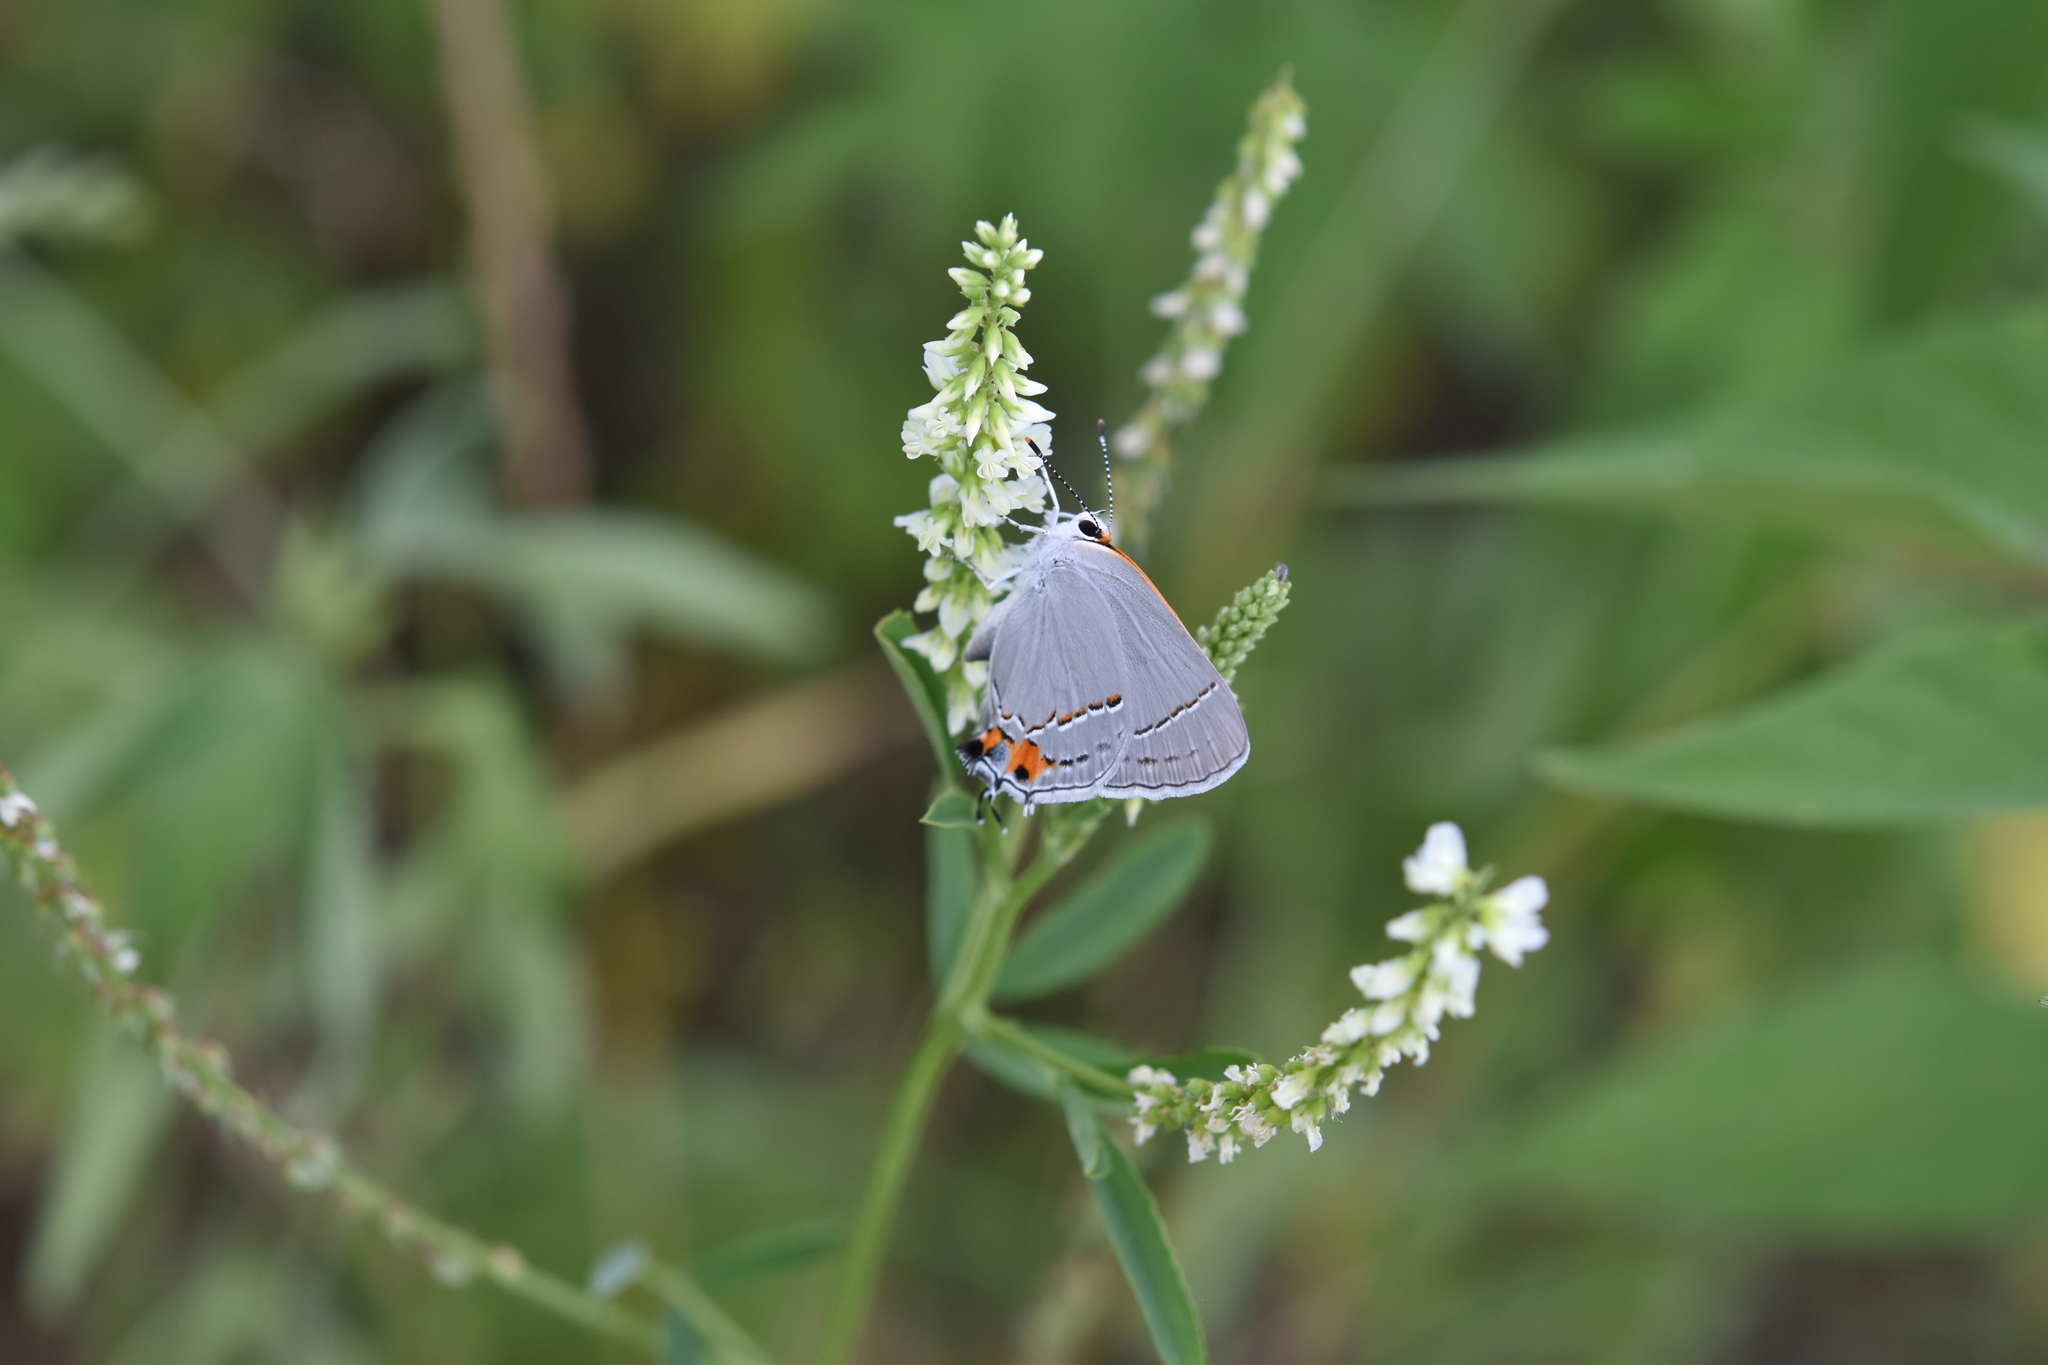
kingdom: Animalia
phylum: Arthropoda
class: Insecta
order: Lepidoptera
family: Lycaenidae
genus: Strymon
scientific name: Strymon melinus
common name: Gray hairstreak
